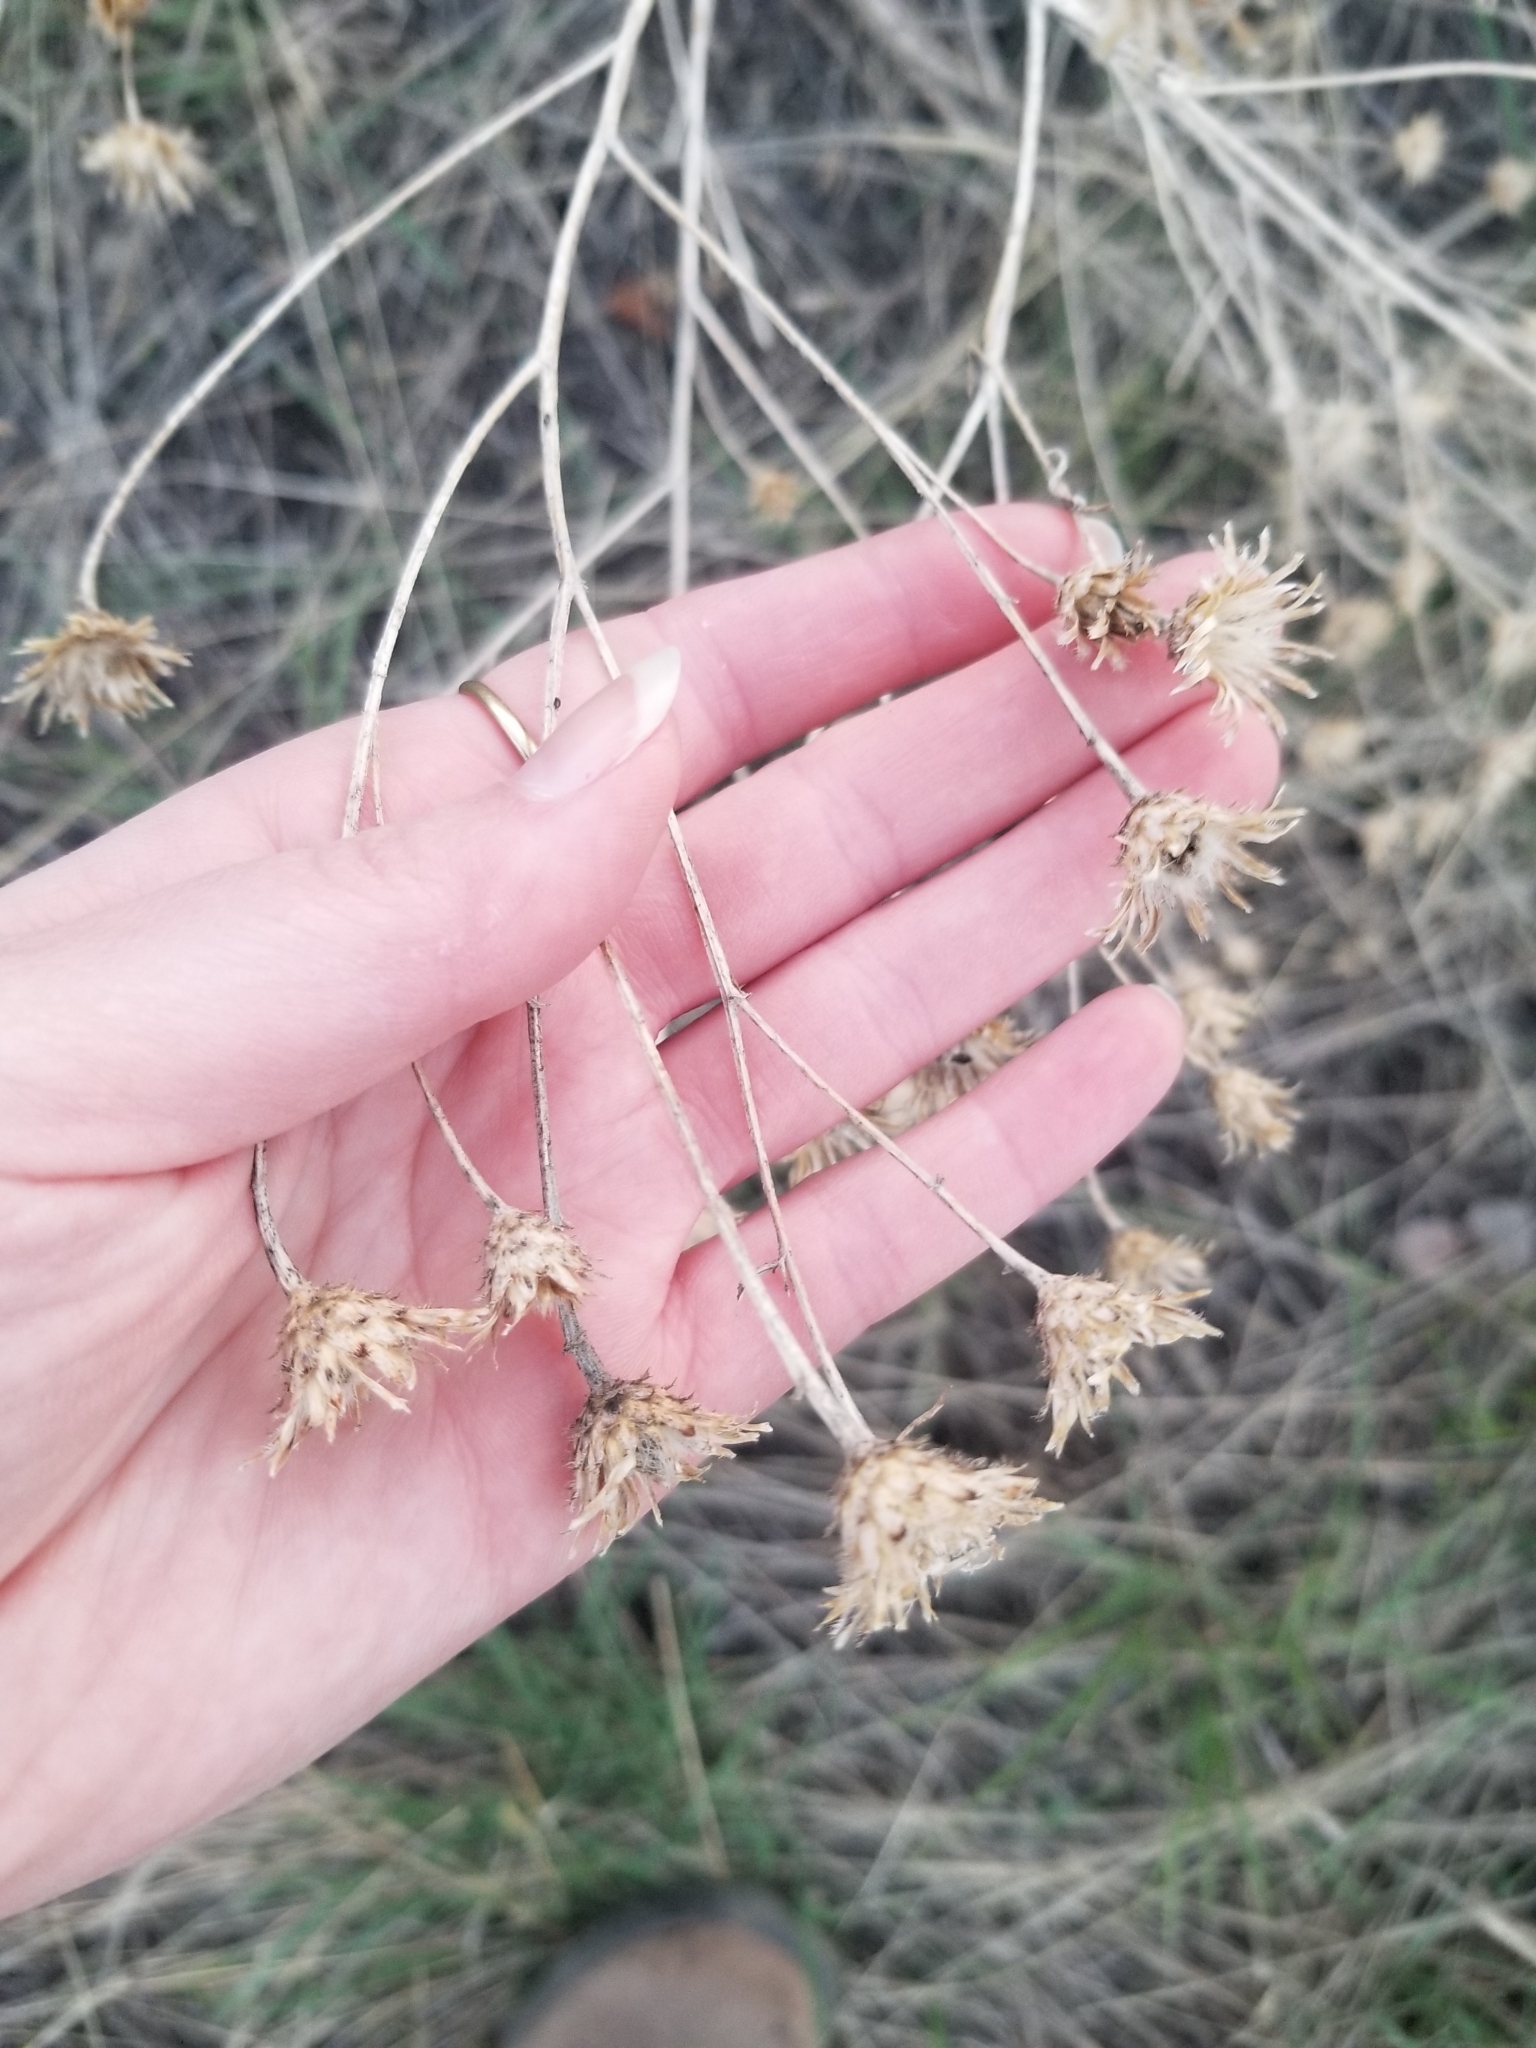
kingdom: Plantae
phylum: Tracheophyta
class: Magnoliopsida
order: Asterales
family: Asteraceae
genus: Centaurea
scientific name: Centaurea stoebe
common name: Spotted knapweed
